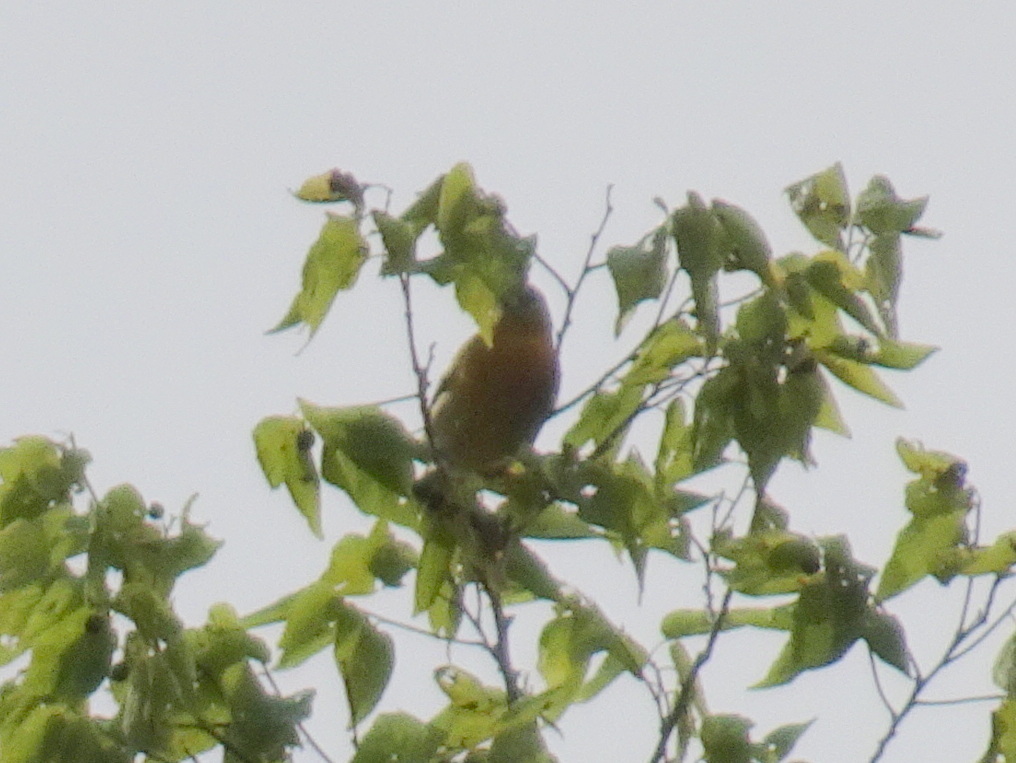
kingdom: Animalia
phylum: Chordata
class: Aves
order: Passeriformes
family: Icteridae
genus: Icterus
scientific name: Icterus galbula
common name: Baltimore oriole
